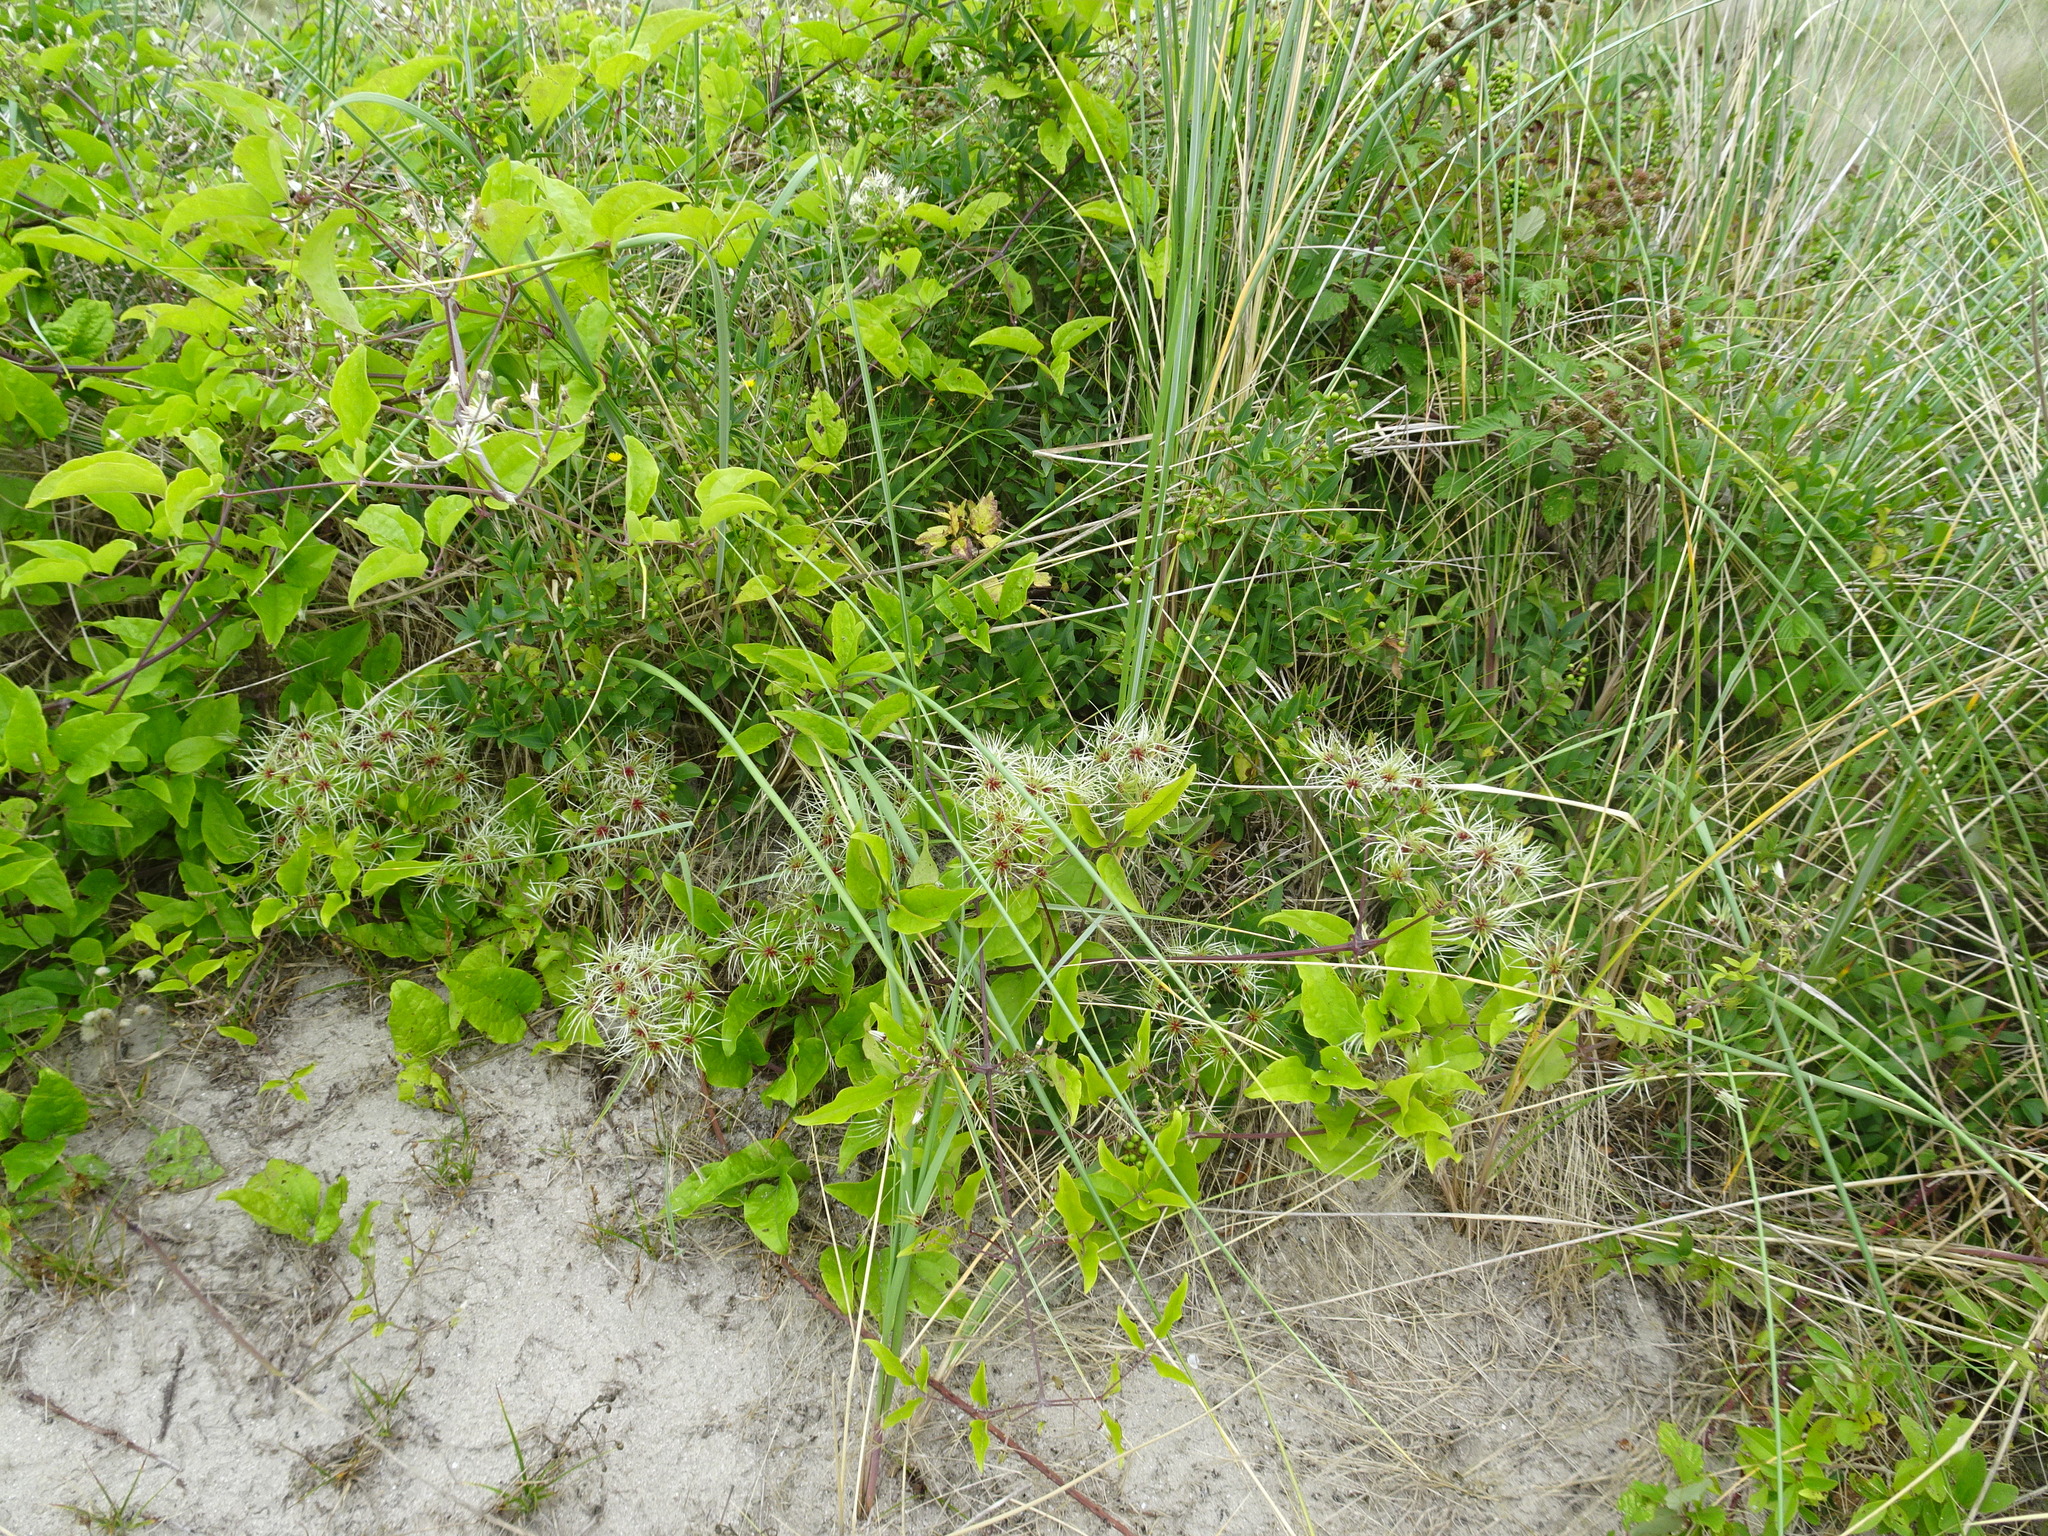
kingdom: Plantae
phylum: Tracheophyta
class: Magnoliopsida
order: Ranunculales
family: Ranunculaceae
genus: Clematis
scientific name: Clematis vitalba
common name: Evergreen clematis
